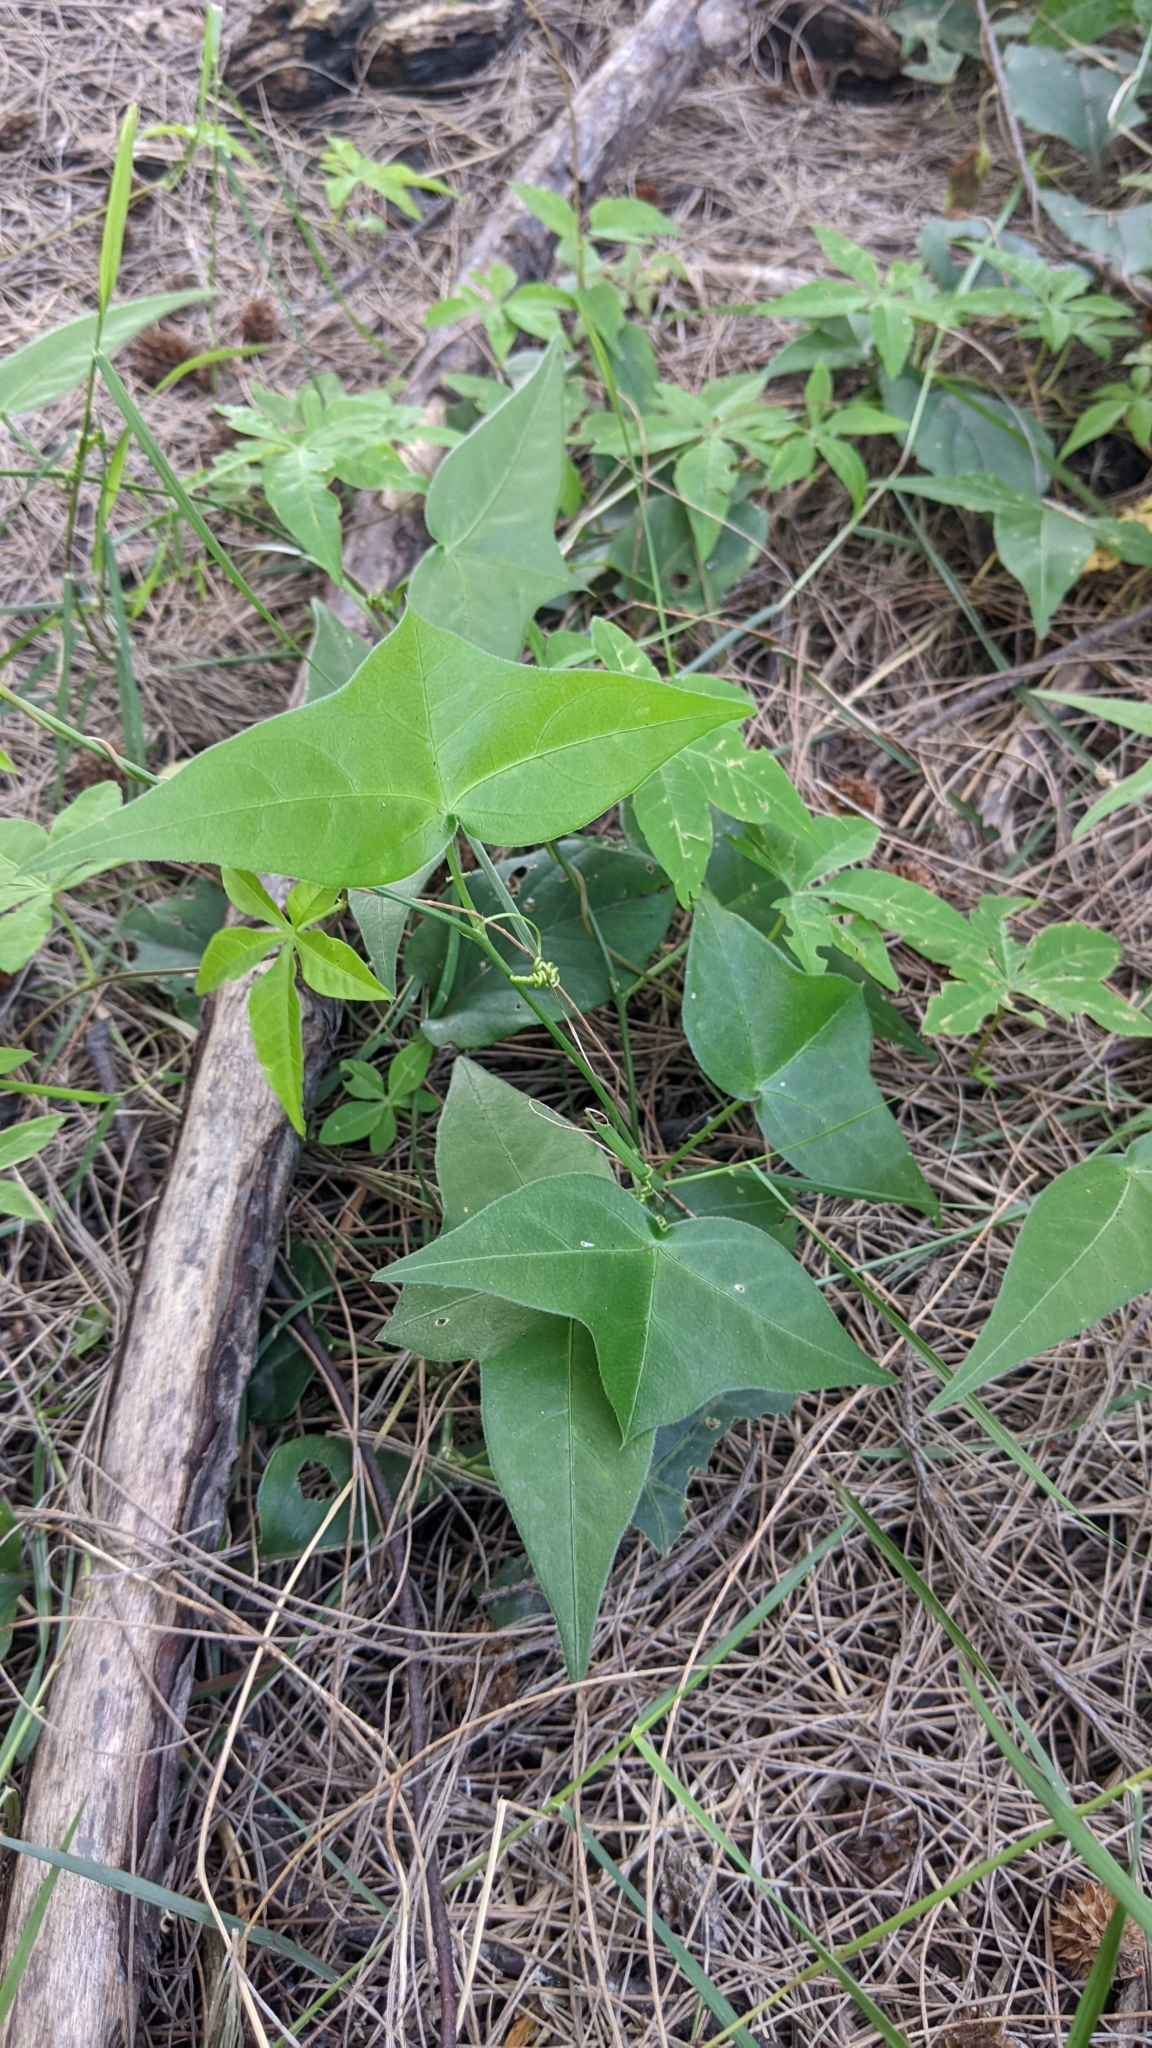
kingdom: Plantae
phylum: Tracheophyta
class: Magnoliopsida
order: Malpighiales
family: Passifloraceae
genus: Passiflora
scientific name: Passiflora suberosa
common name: Wild passionfruit
